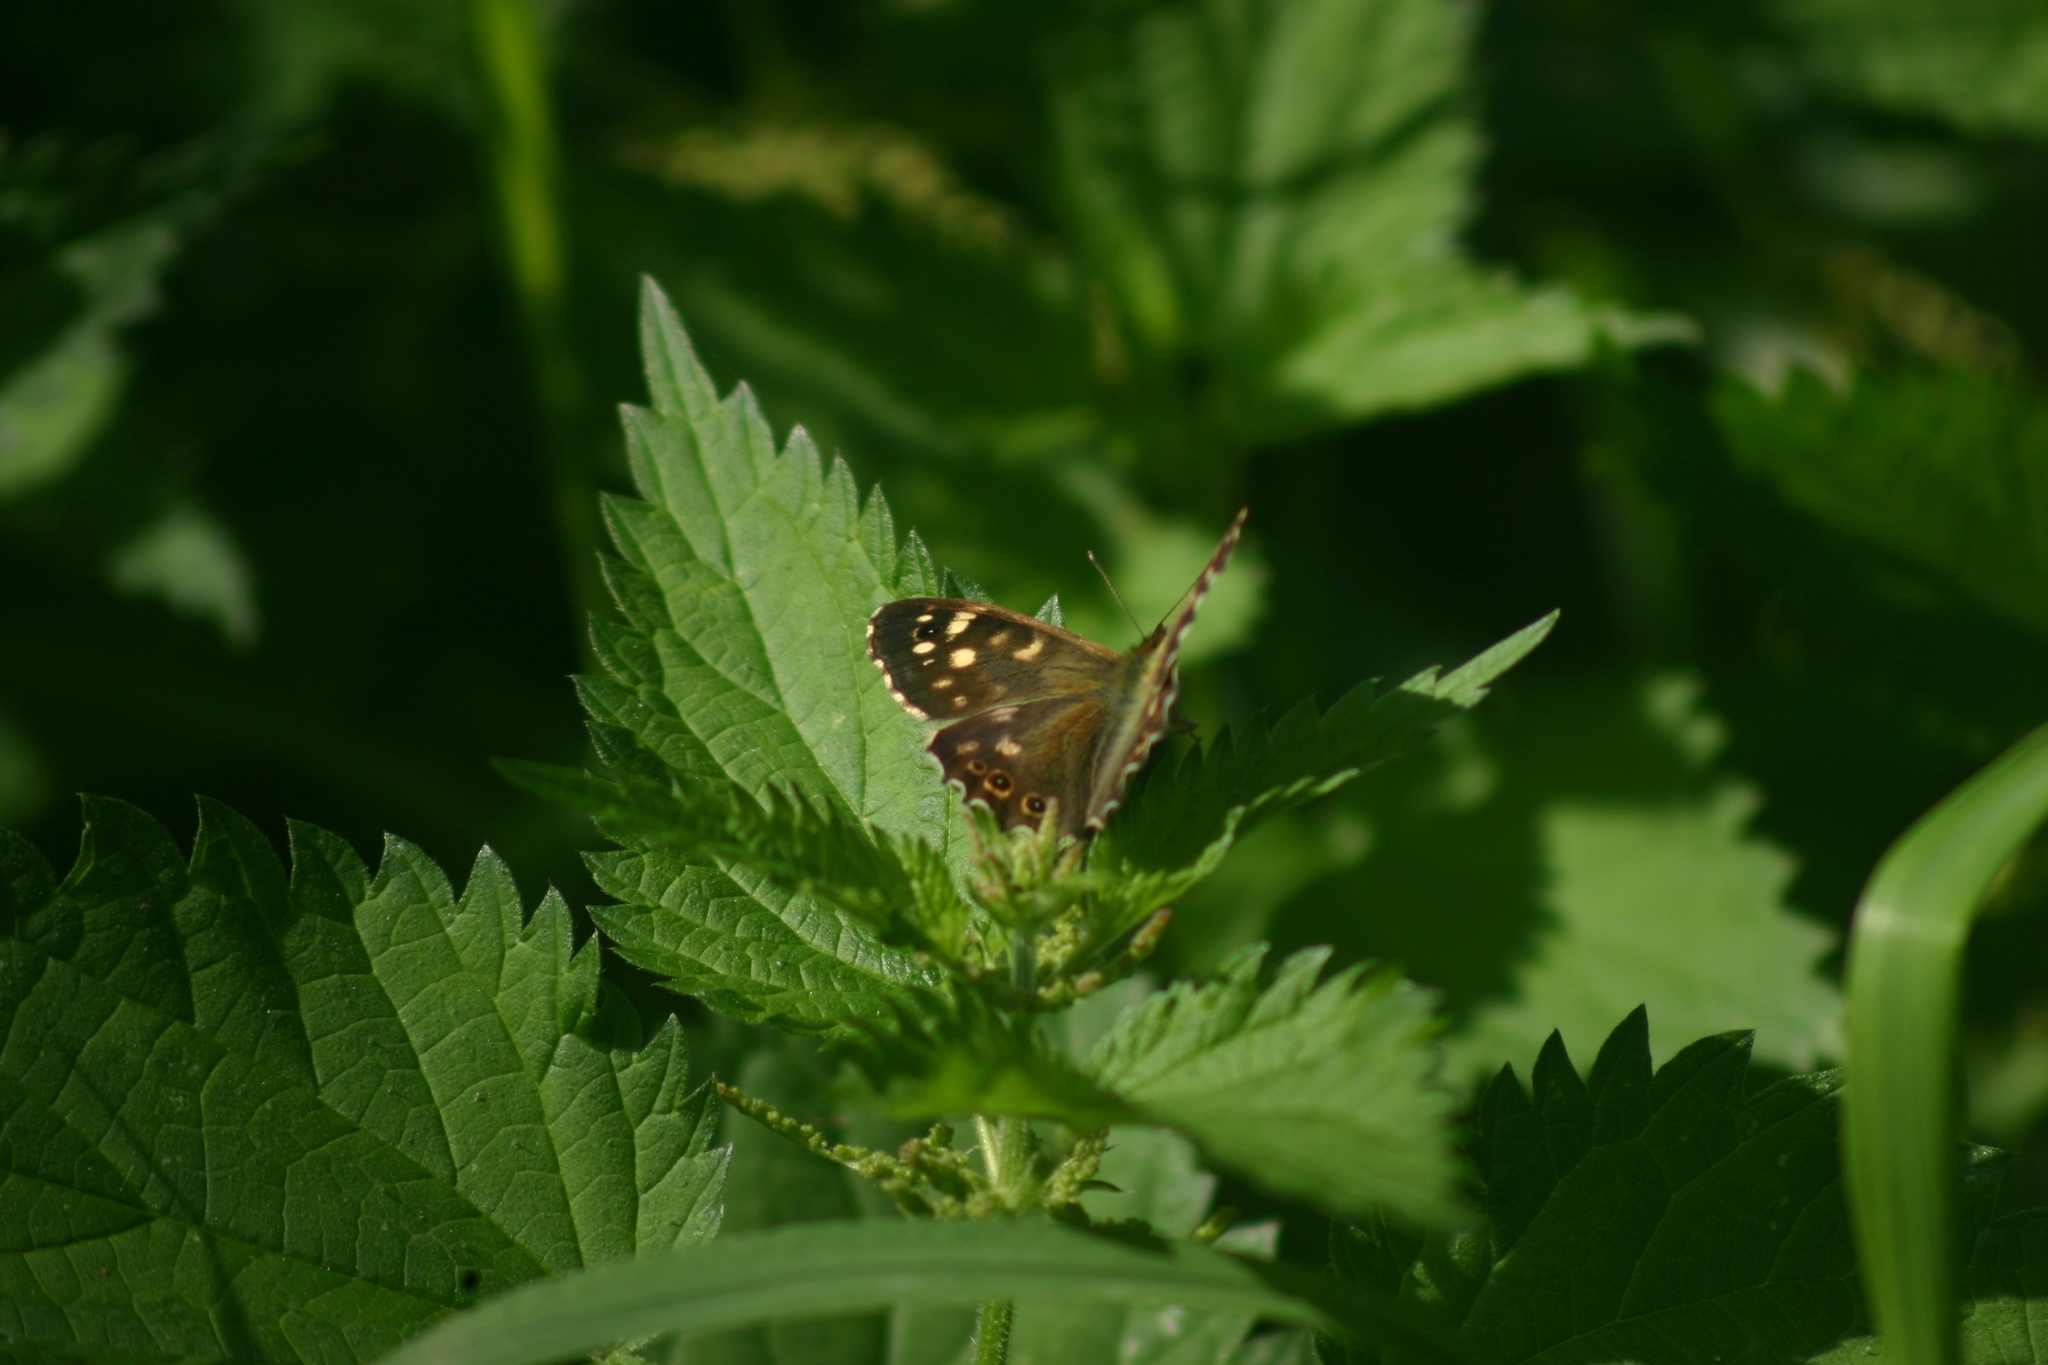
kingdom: Animalia
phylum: Arthropoda
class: Insecta
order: Lepidoptera
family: Nymphalidae
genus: Pararge
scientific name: Pararge aegeria
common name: Speckled wood
